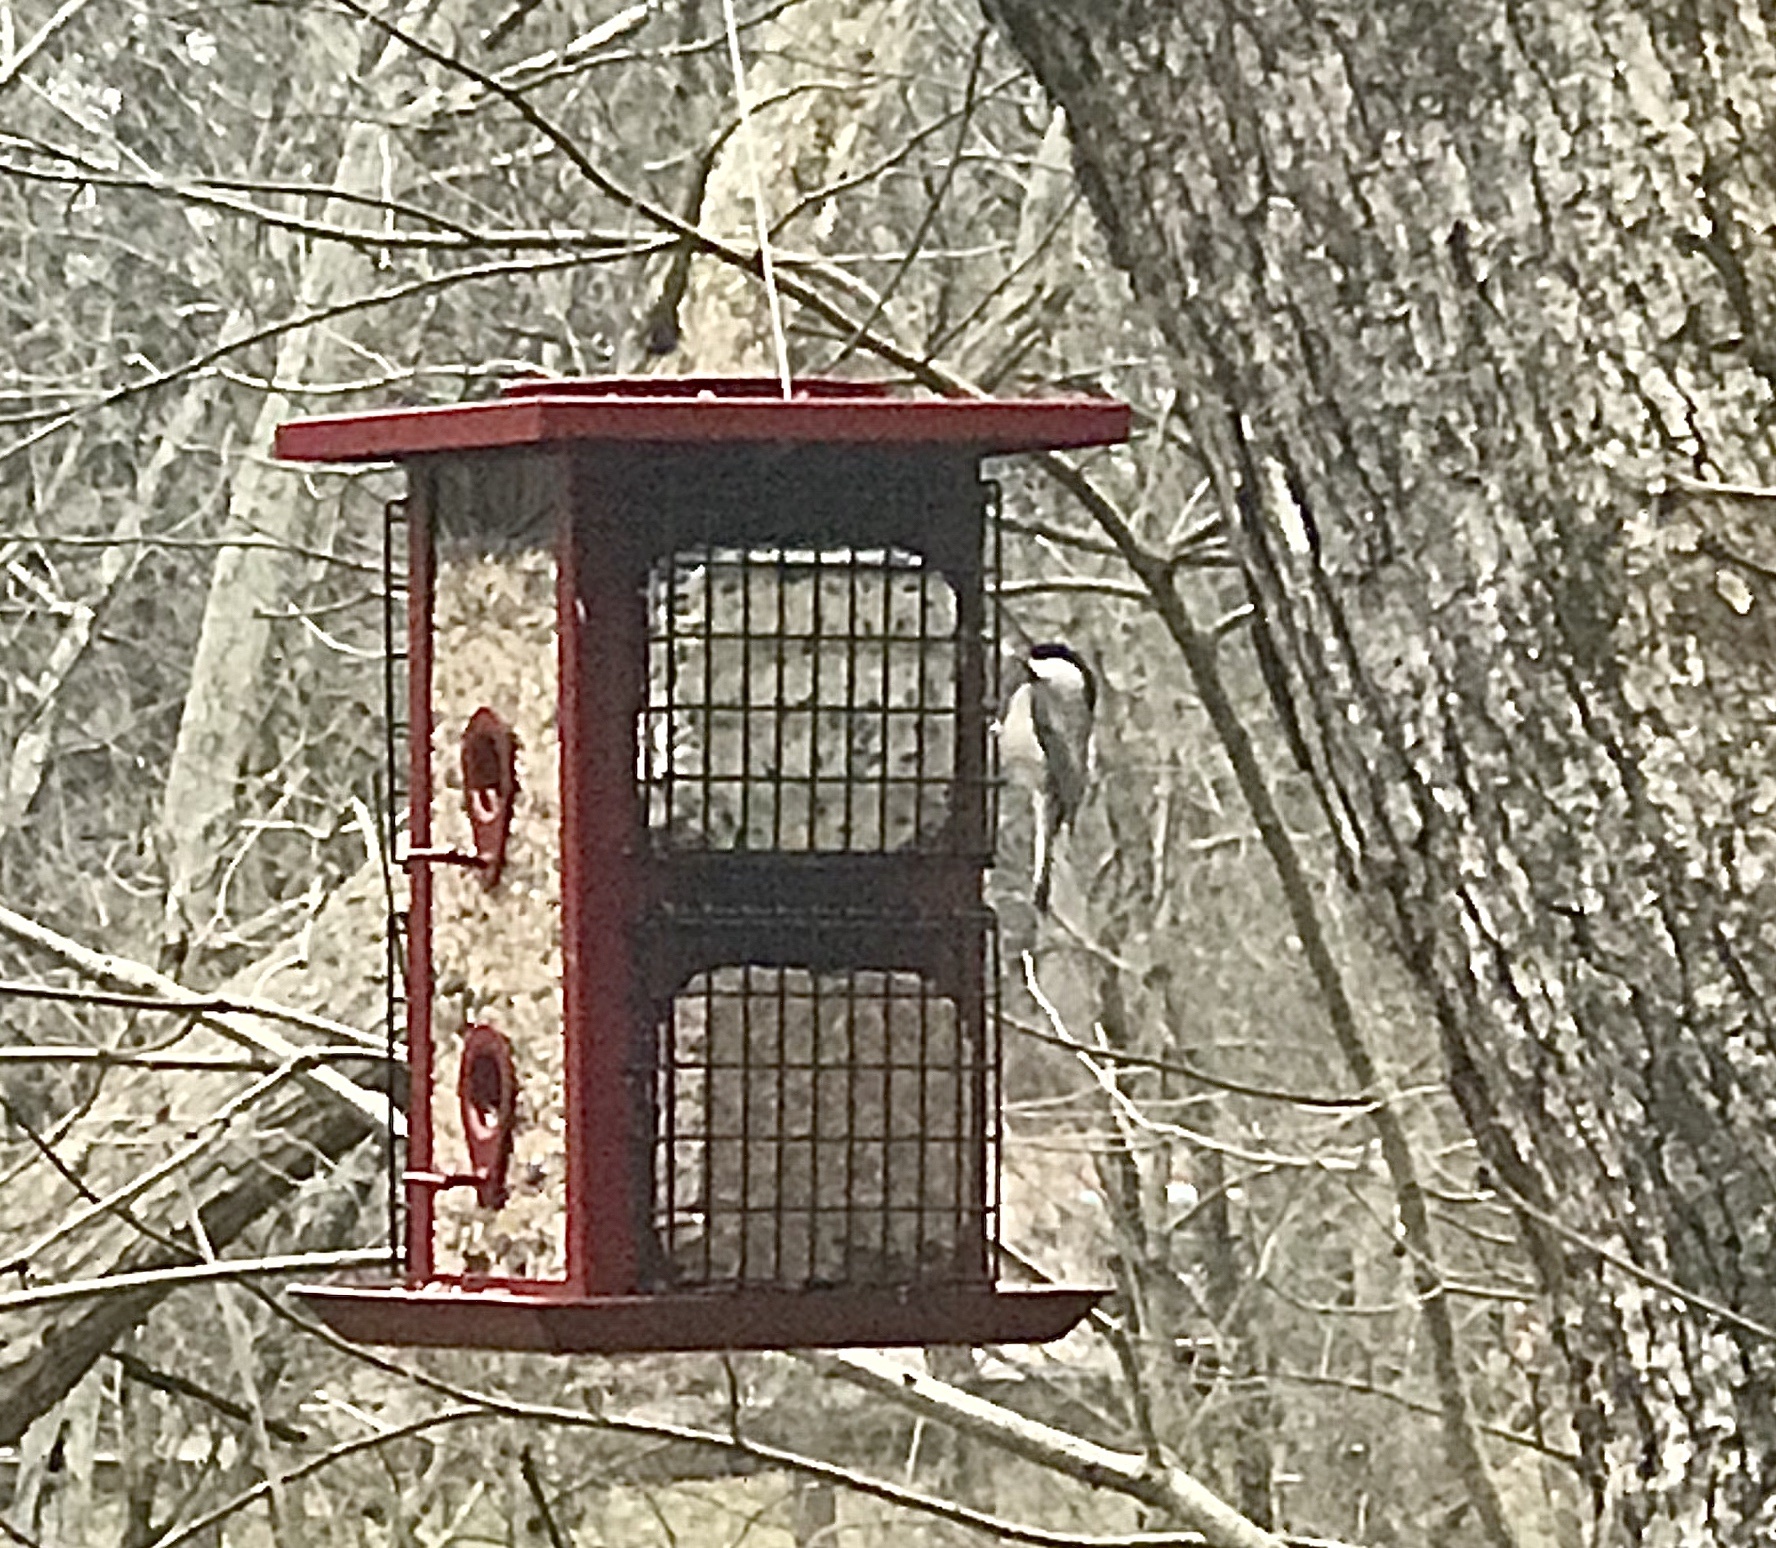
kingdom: Animalia
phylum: Chordata
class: Aves
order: Passeriformes
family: Paridae
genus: Poecile
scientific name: Poecile carolinensis
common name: Carolina chickadee
